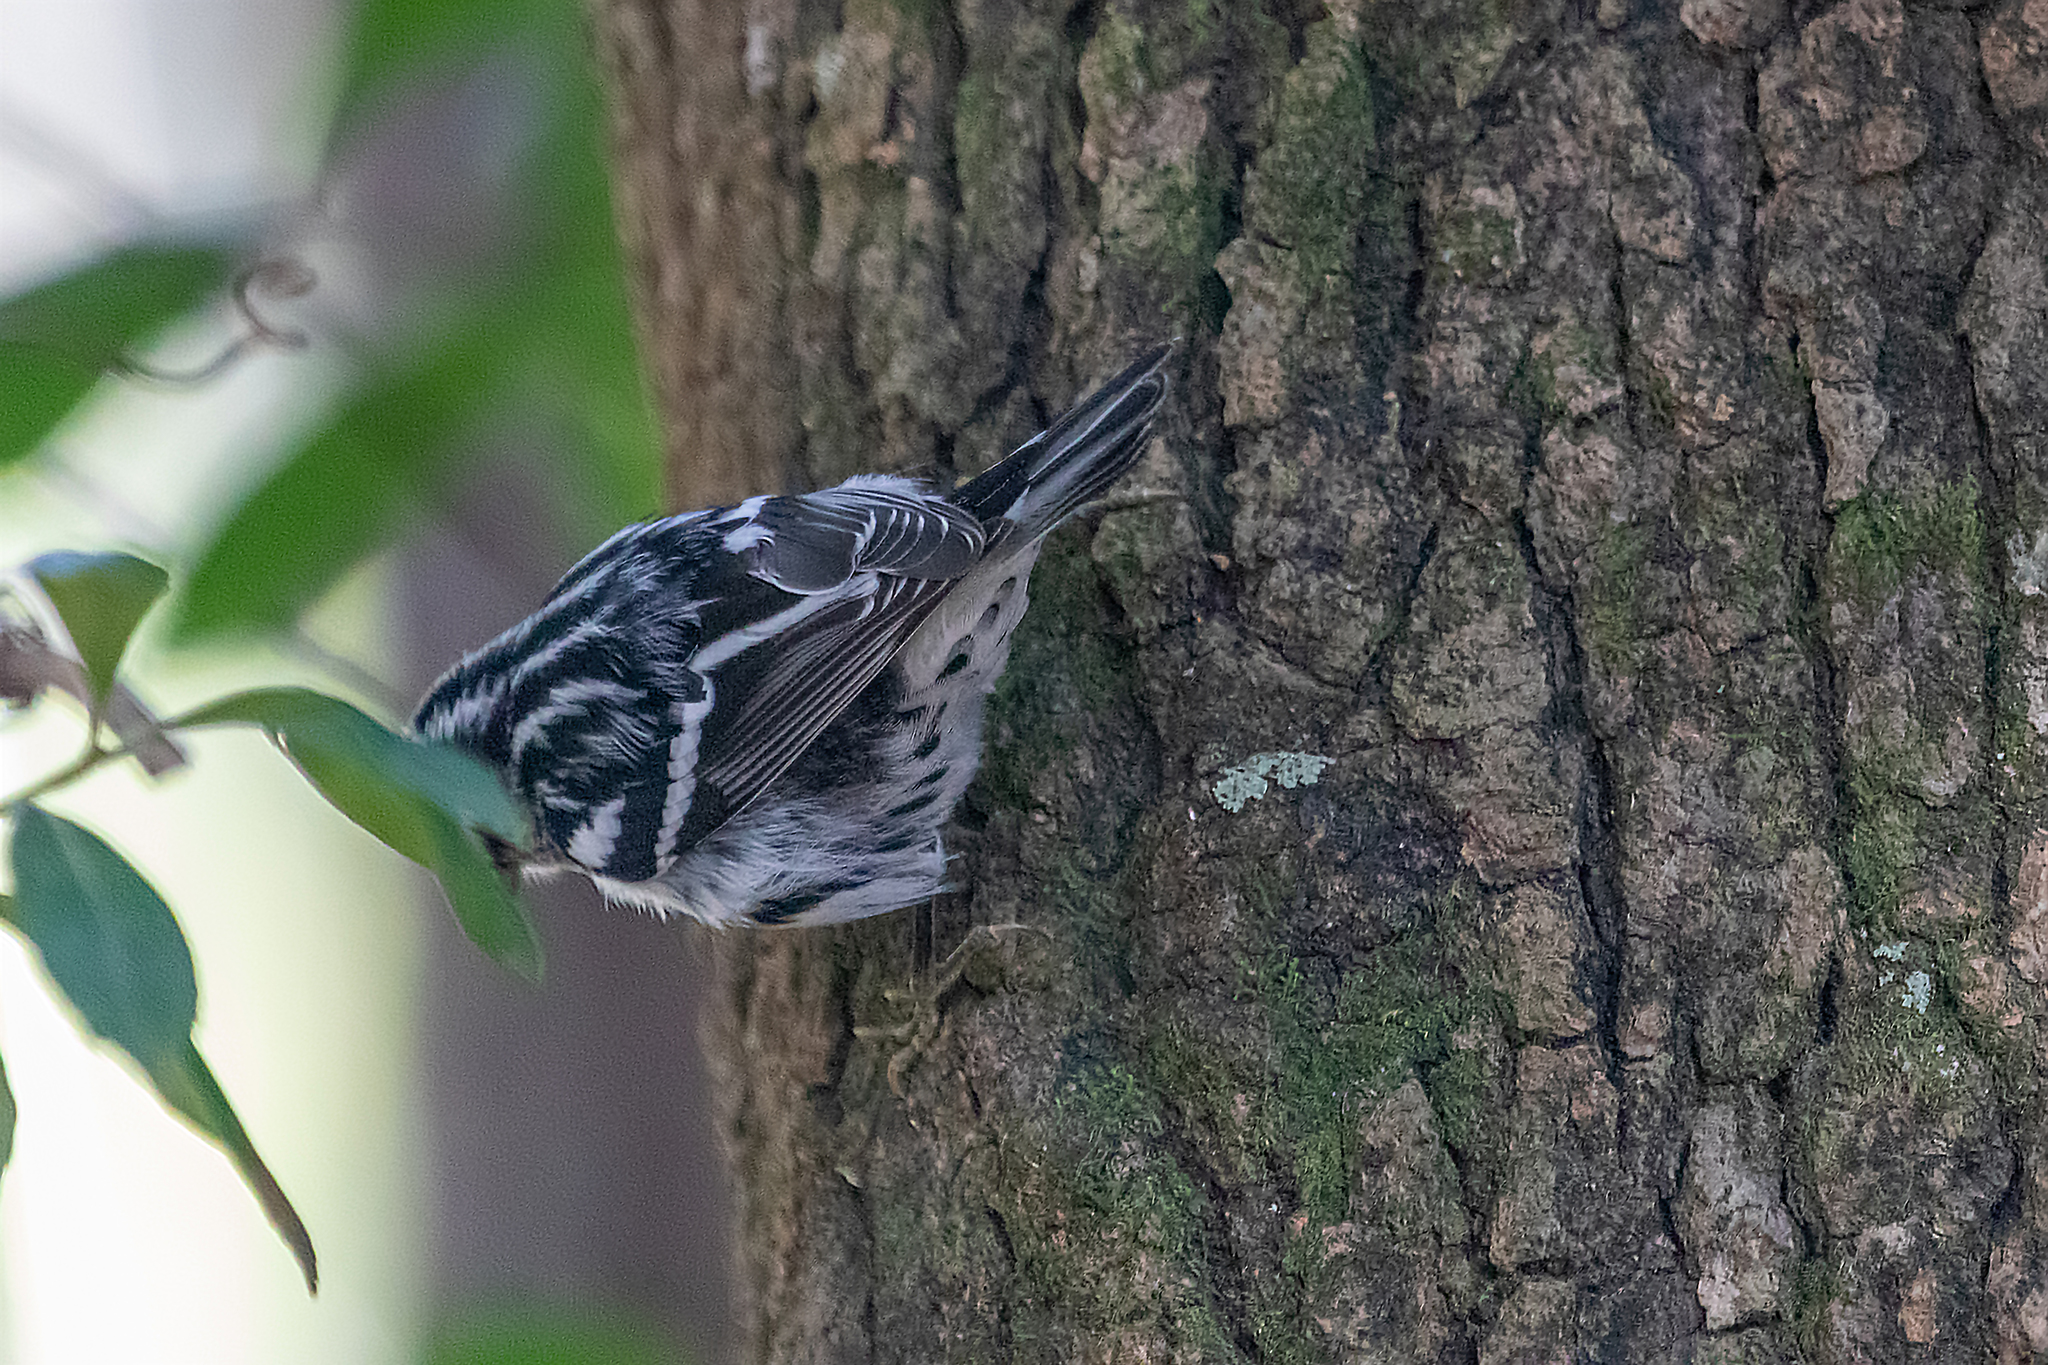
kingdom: Animalia
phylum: Chordata
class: Aves
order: Passeriformes
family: Parulidae
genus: Mniotilta
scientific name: Mniotilta varia
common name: Black-and-white warbler
